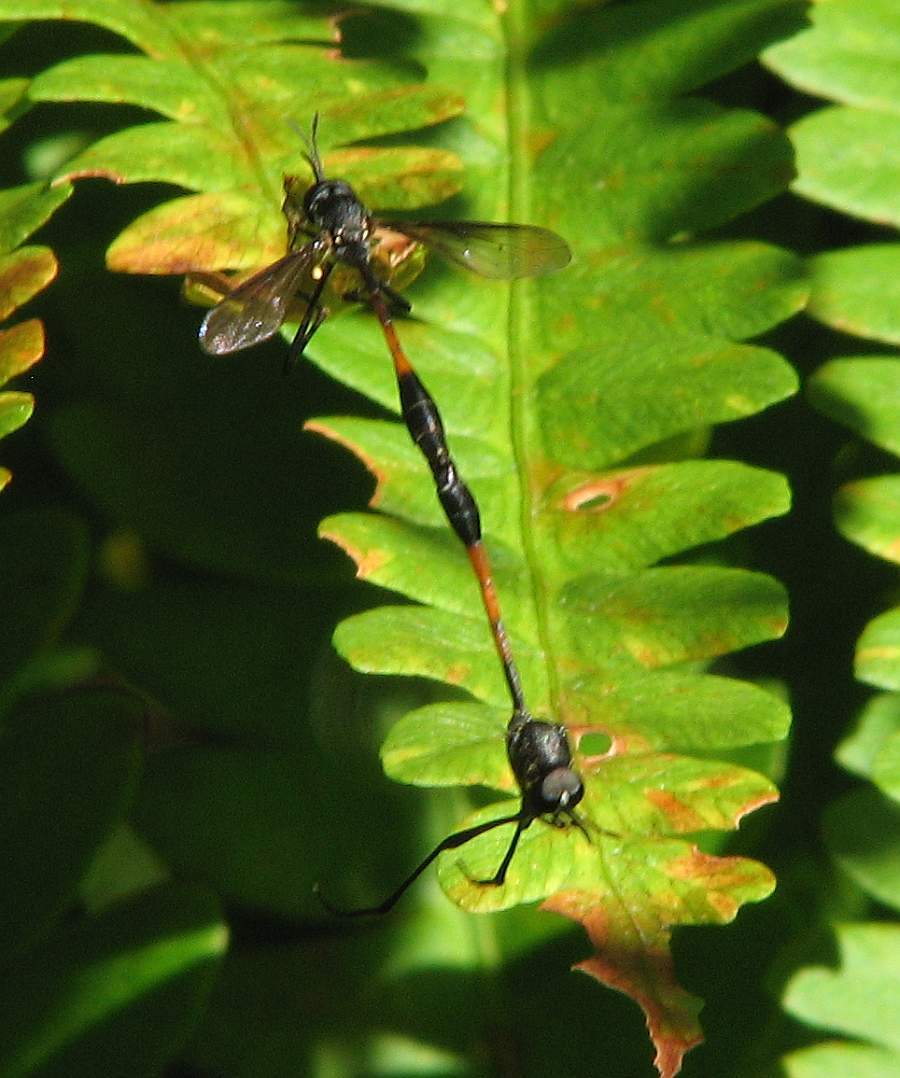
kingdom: Animalia
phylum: Arthropoda
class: Insecta
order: Diptera
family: Bombyliidae
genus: Systropus
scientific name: Systropus macer
